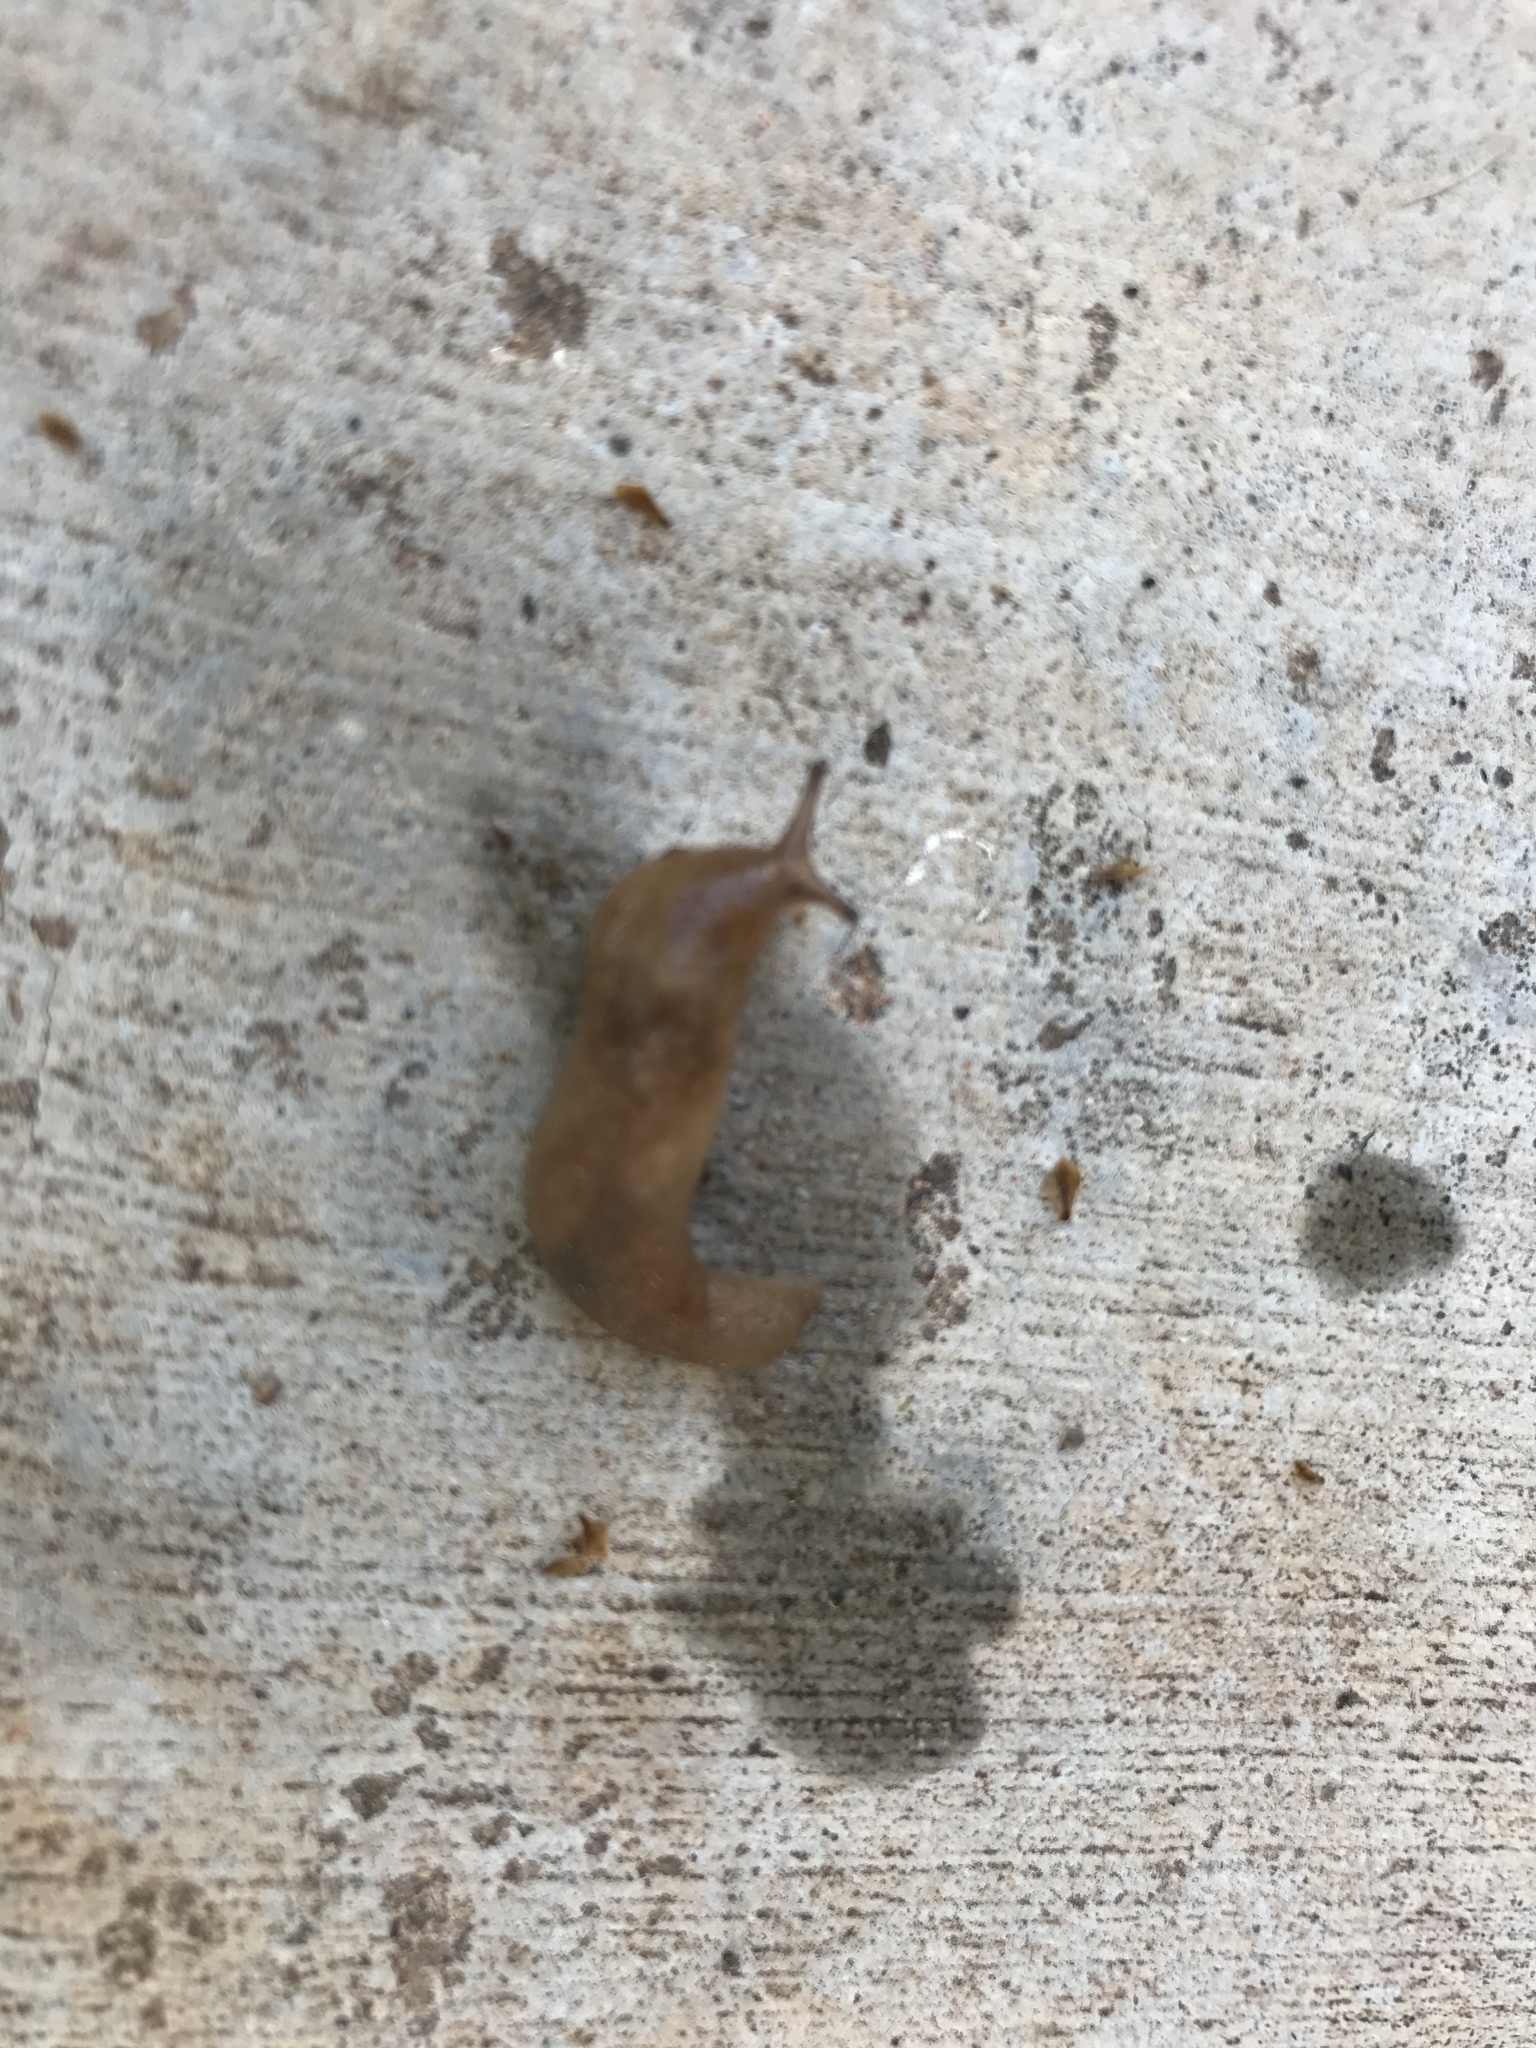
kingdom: Animalia
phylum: Mollusca
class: Gastropoda
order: Stylommatophora
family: Limacidae
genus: Ambigolimax
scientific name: Ambigolimax
